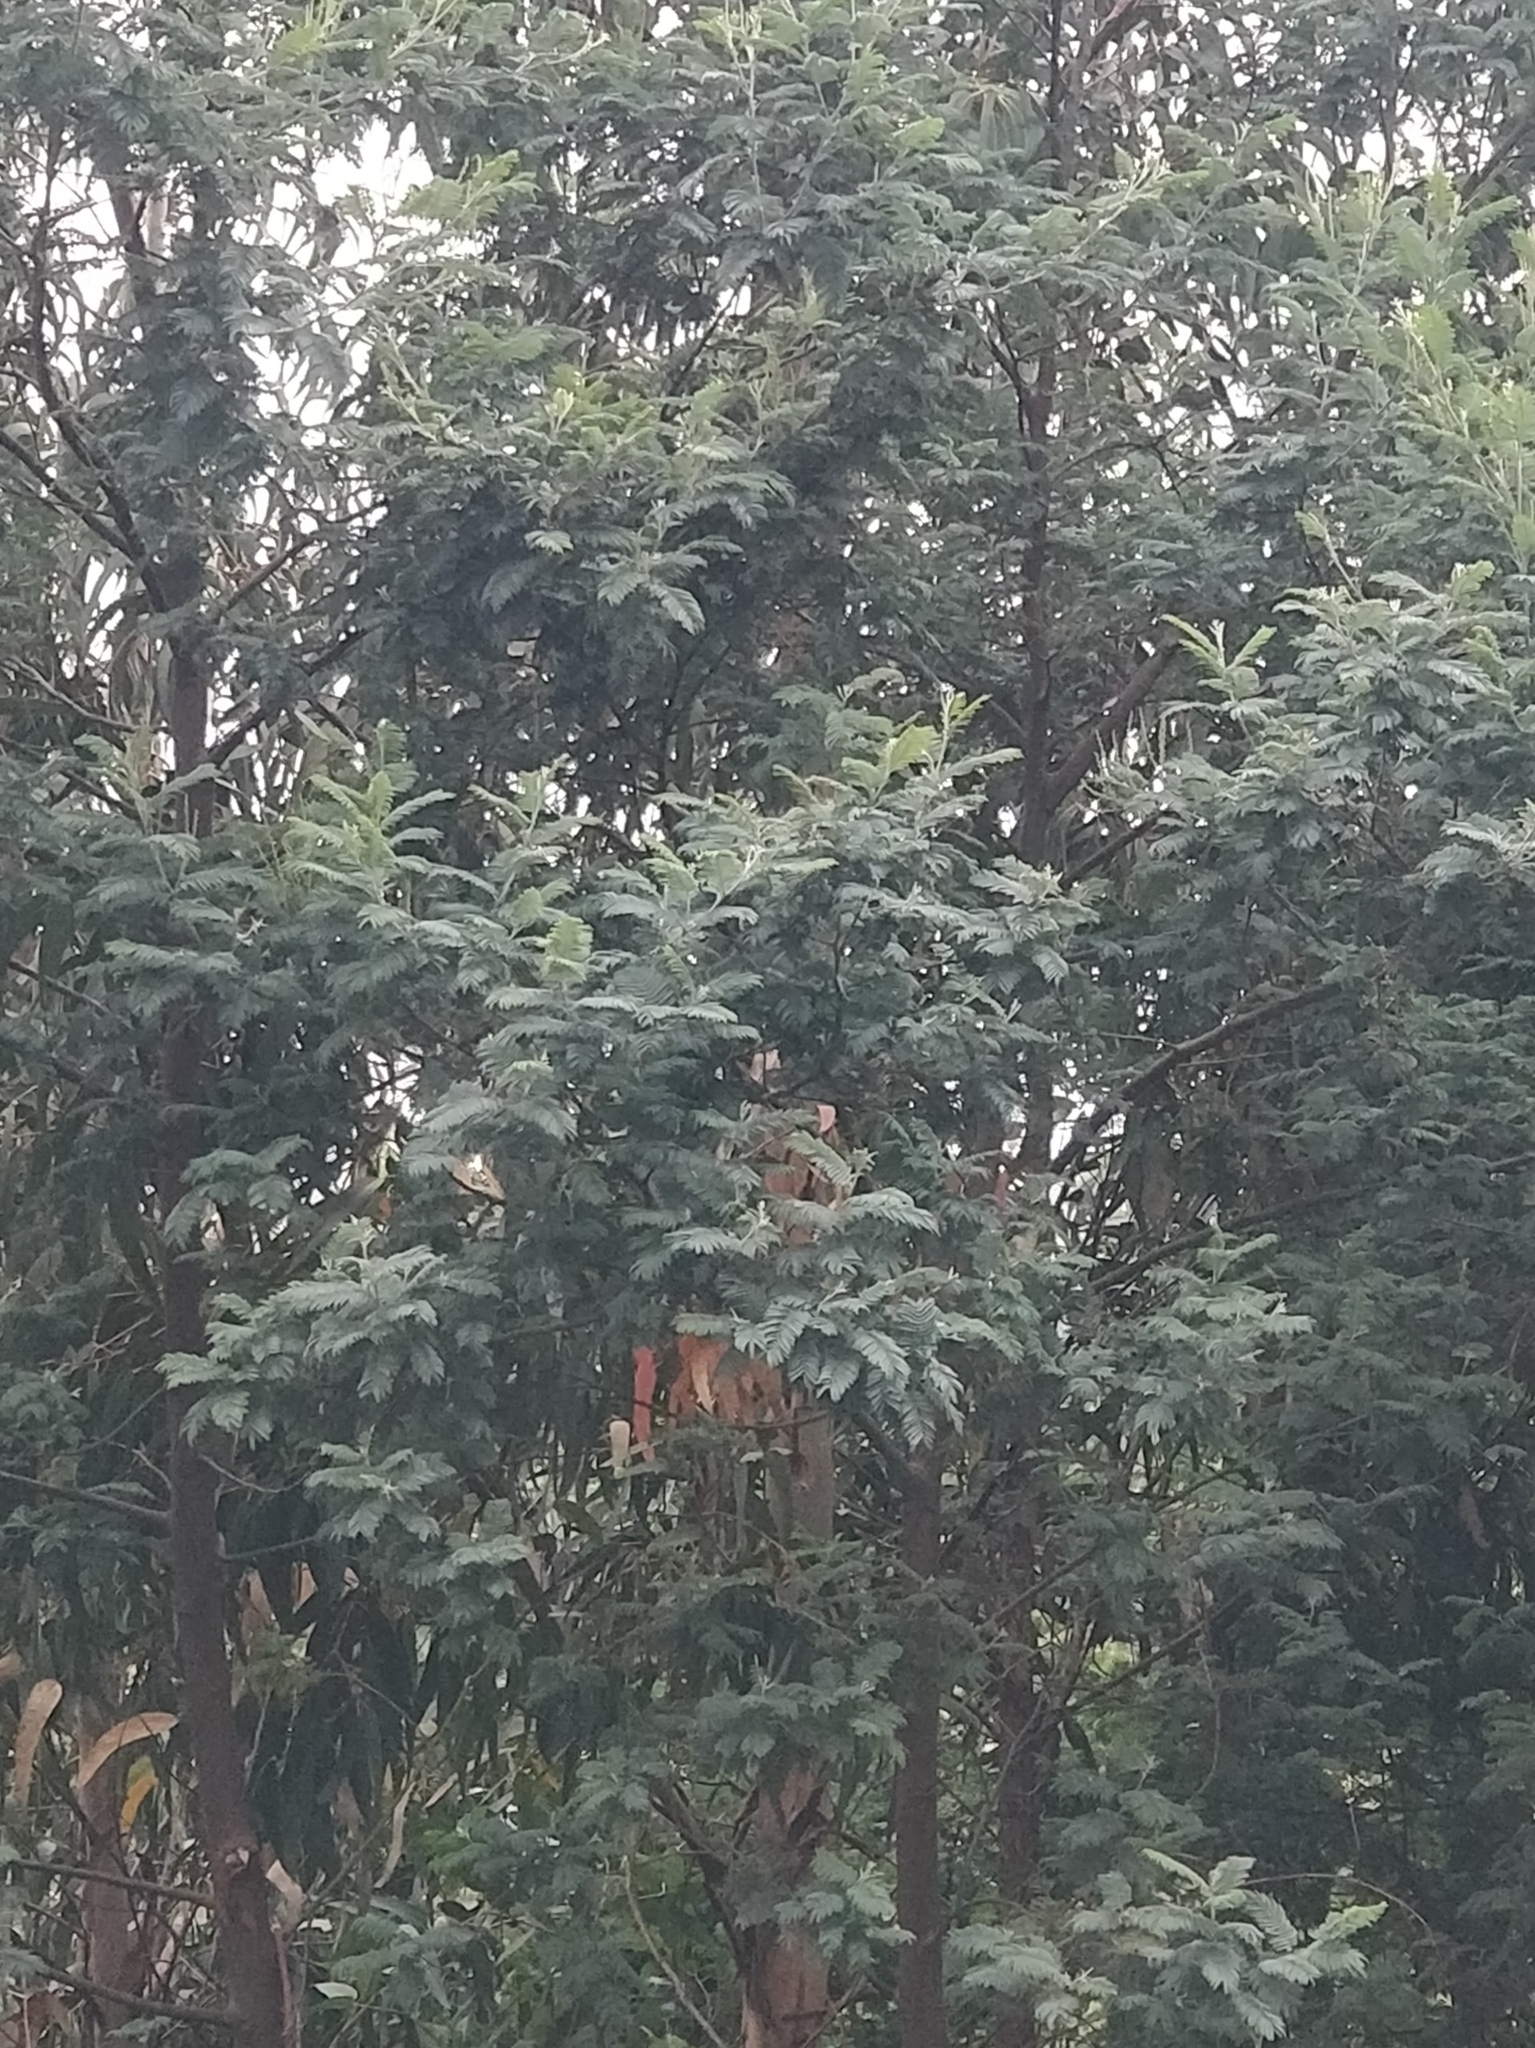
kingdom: Plantae
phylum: Tracheophyta
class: Magnoliopsida
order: Fabales
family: Fabaceae
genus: Acacia
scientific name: Acacia mearnsii
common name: Black wattle
